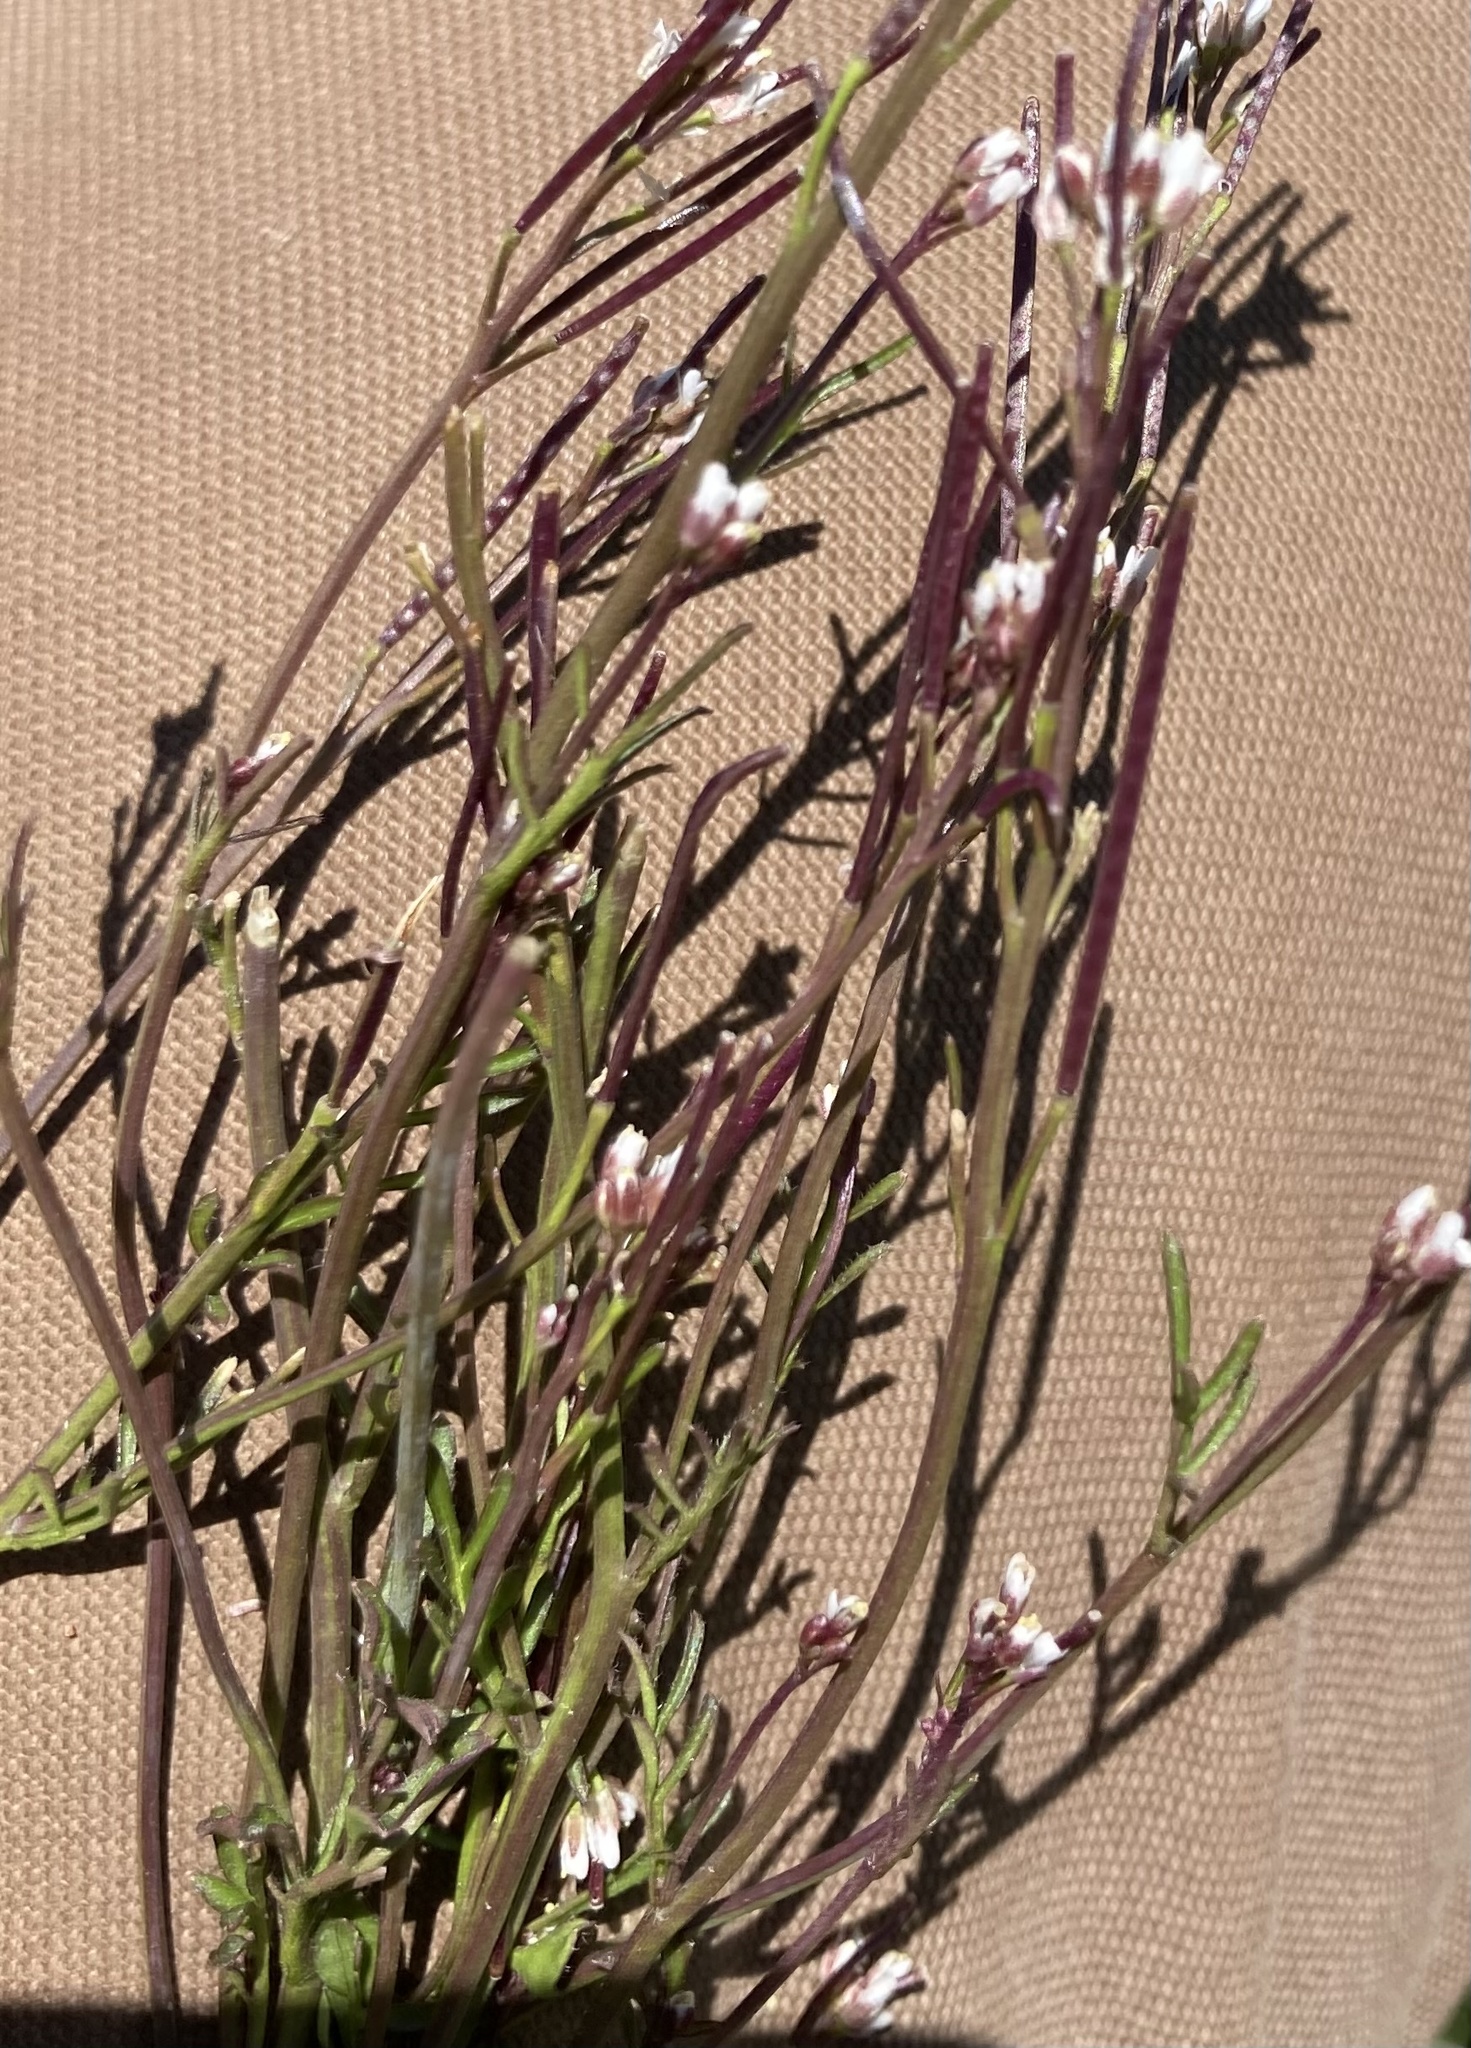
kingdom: Plantae
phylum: Tracheophyta
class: Magnoliopsida
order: Brassicales
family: Brassicaceae
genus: Cardamine
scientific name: Cardamine hirsuta
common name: Hairy bittercress
